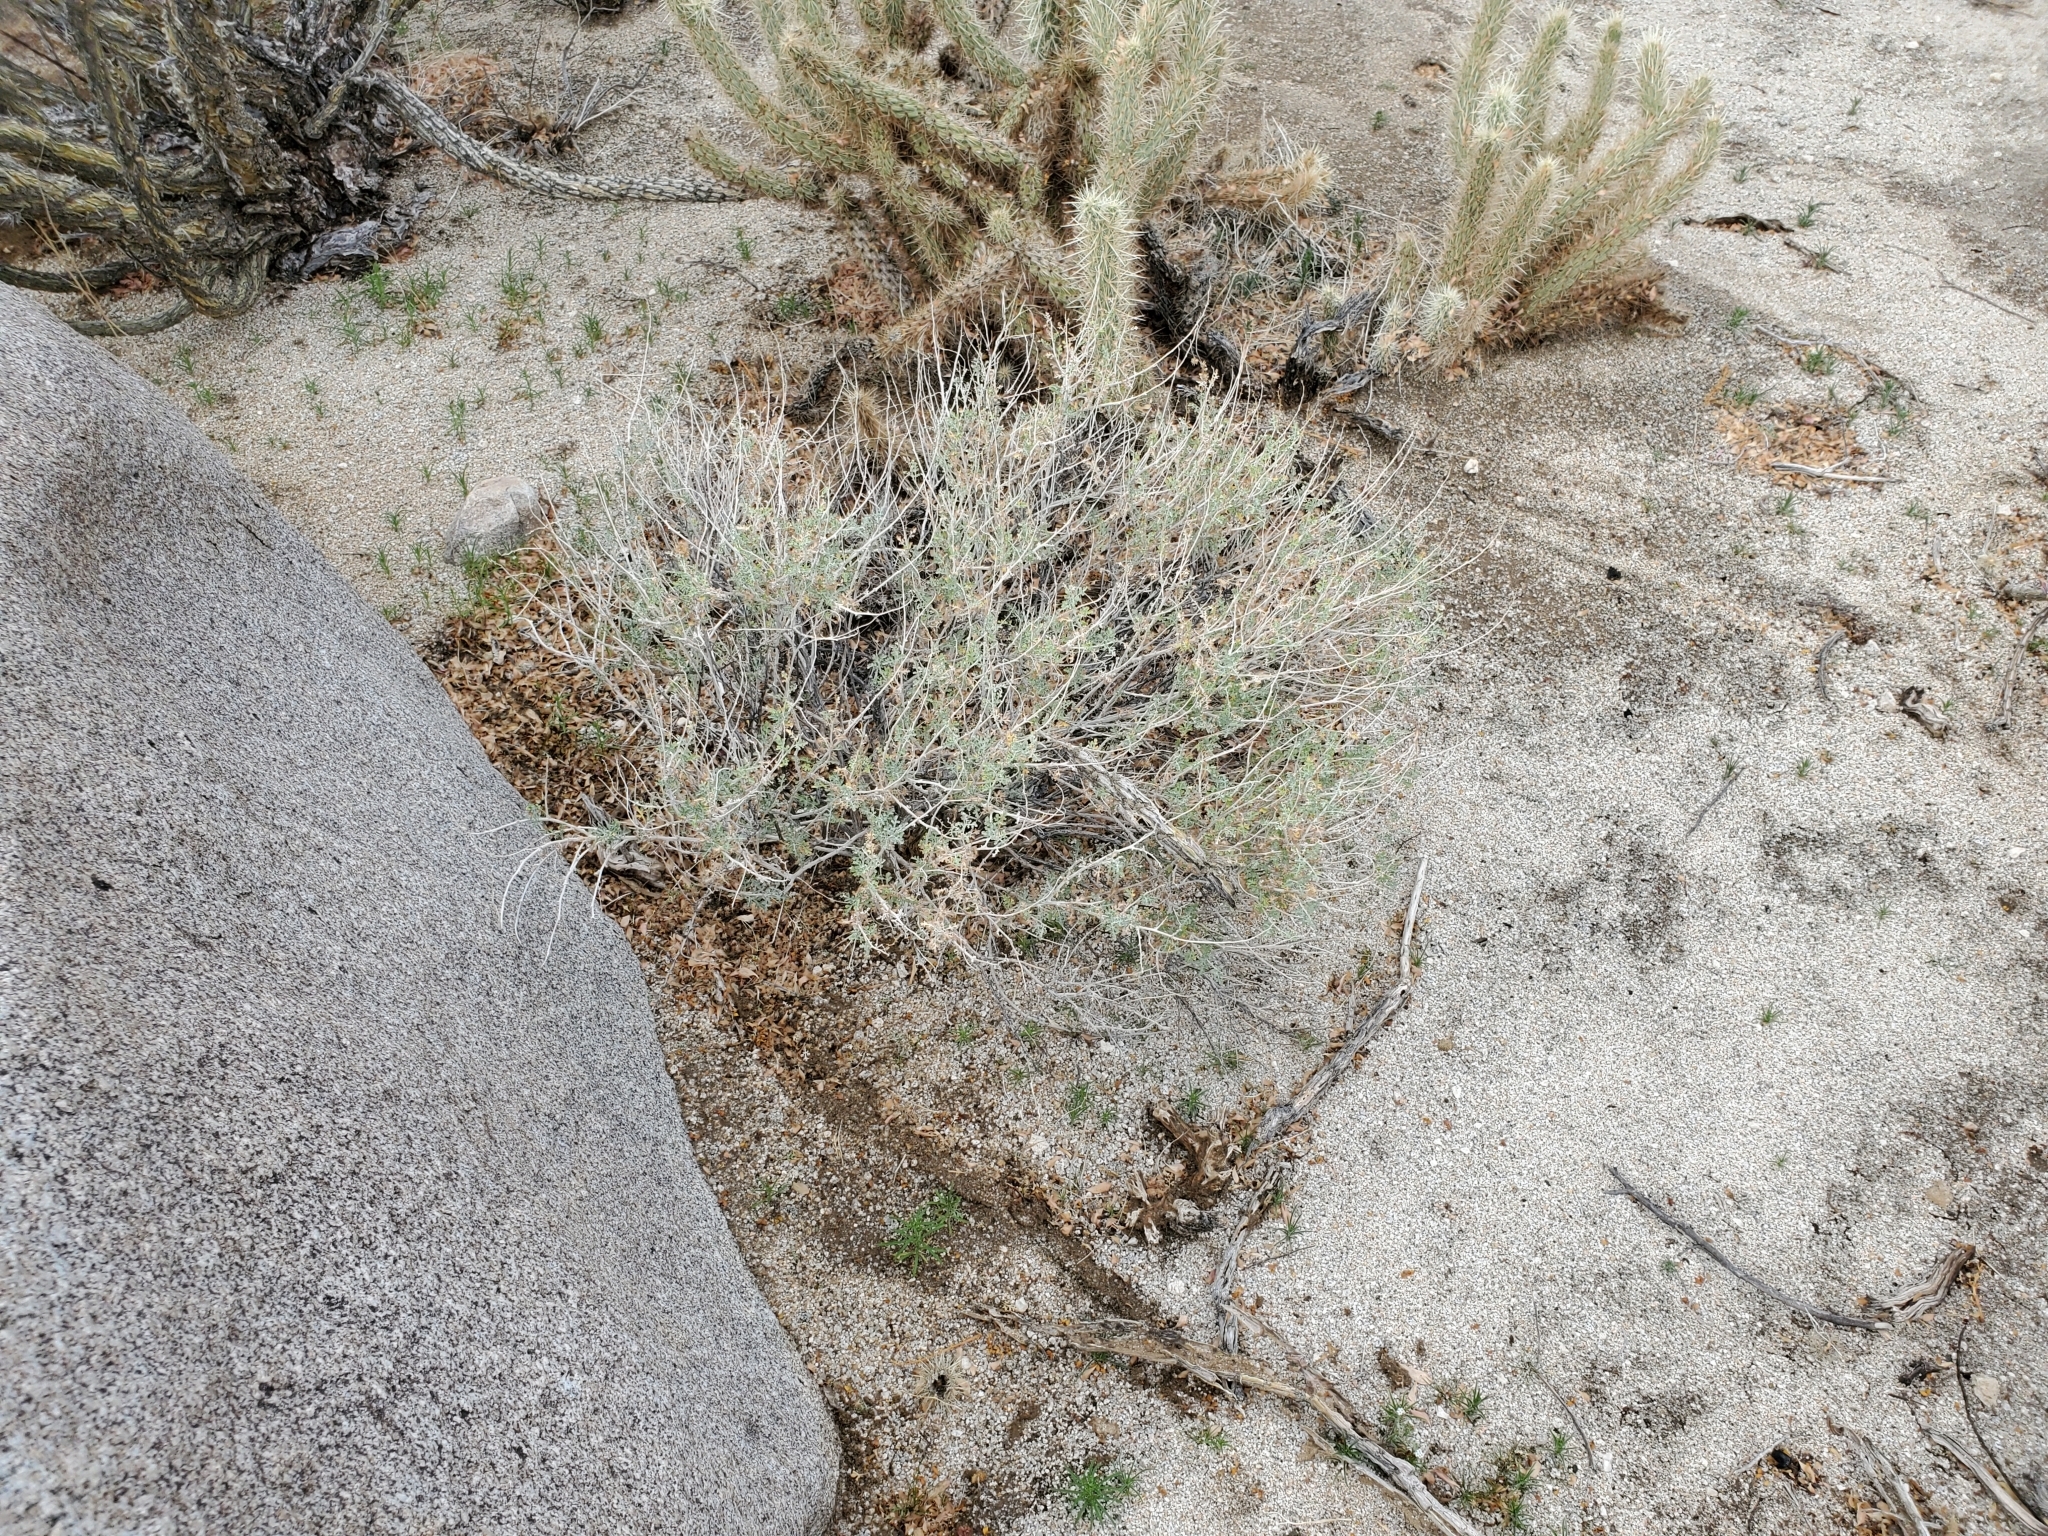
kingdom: Plantae
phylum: Tracheophyta
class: Magnoliopsida
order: Asterales
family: Asteraceae
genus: Ambrosia
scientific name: Ambrosia dumosa
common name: Bur-sage
